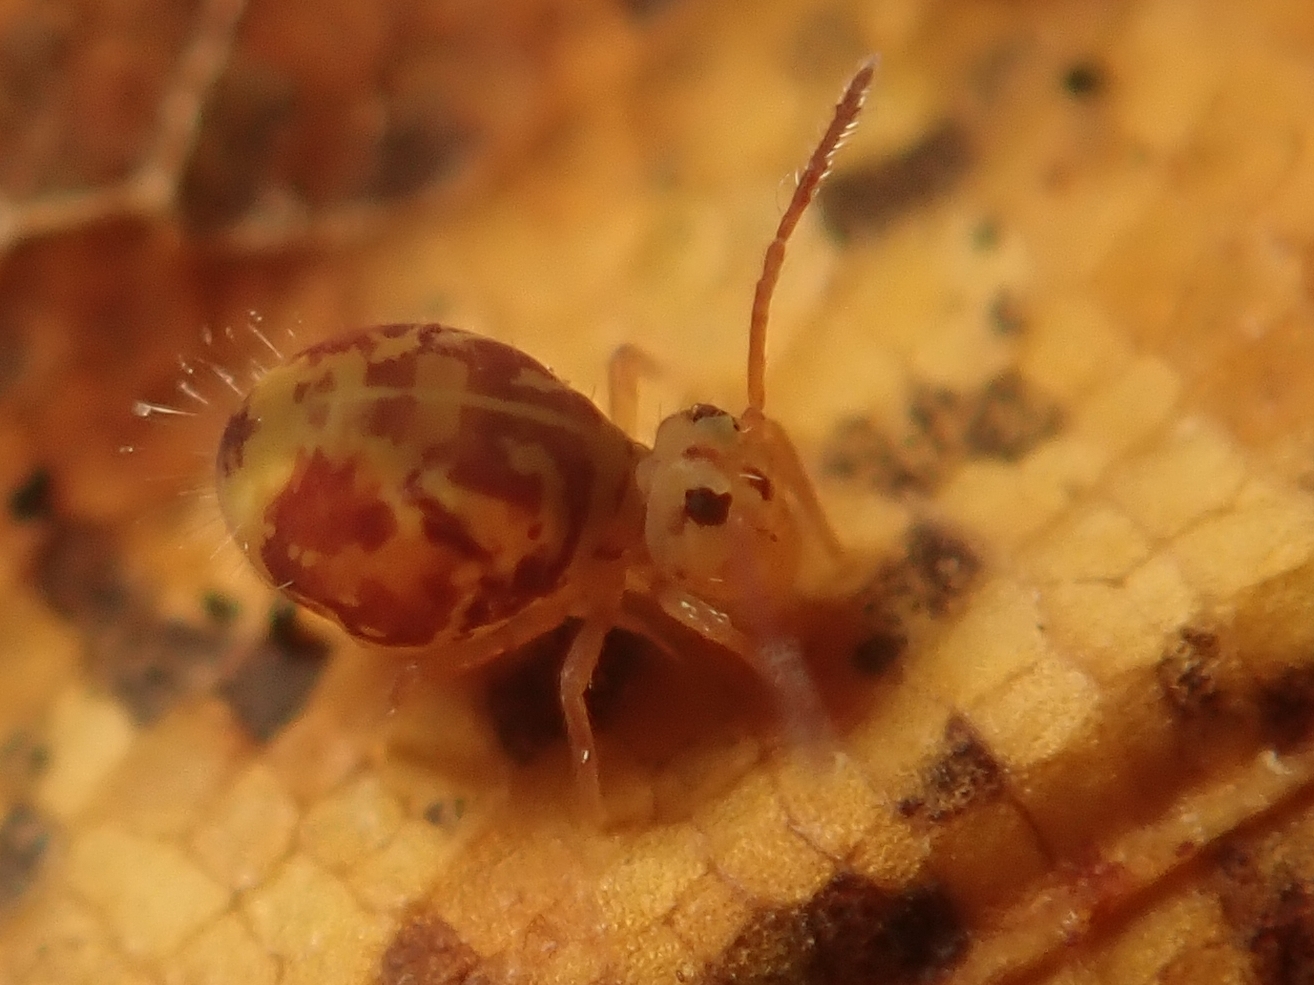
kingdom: Animalia
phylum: Arthropoda
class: Collembola
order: Symphypleona
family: Dicyrtomidae
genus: Dicyrtomina
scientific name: Dicyrtomina ornata
